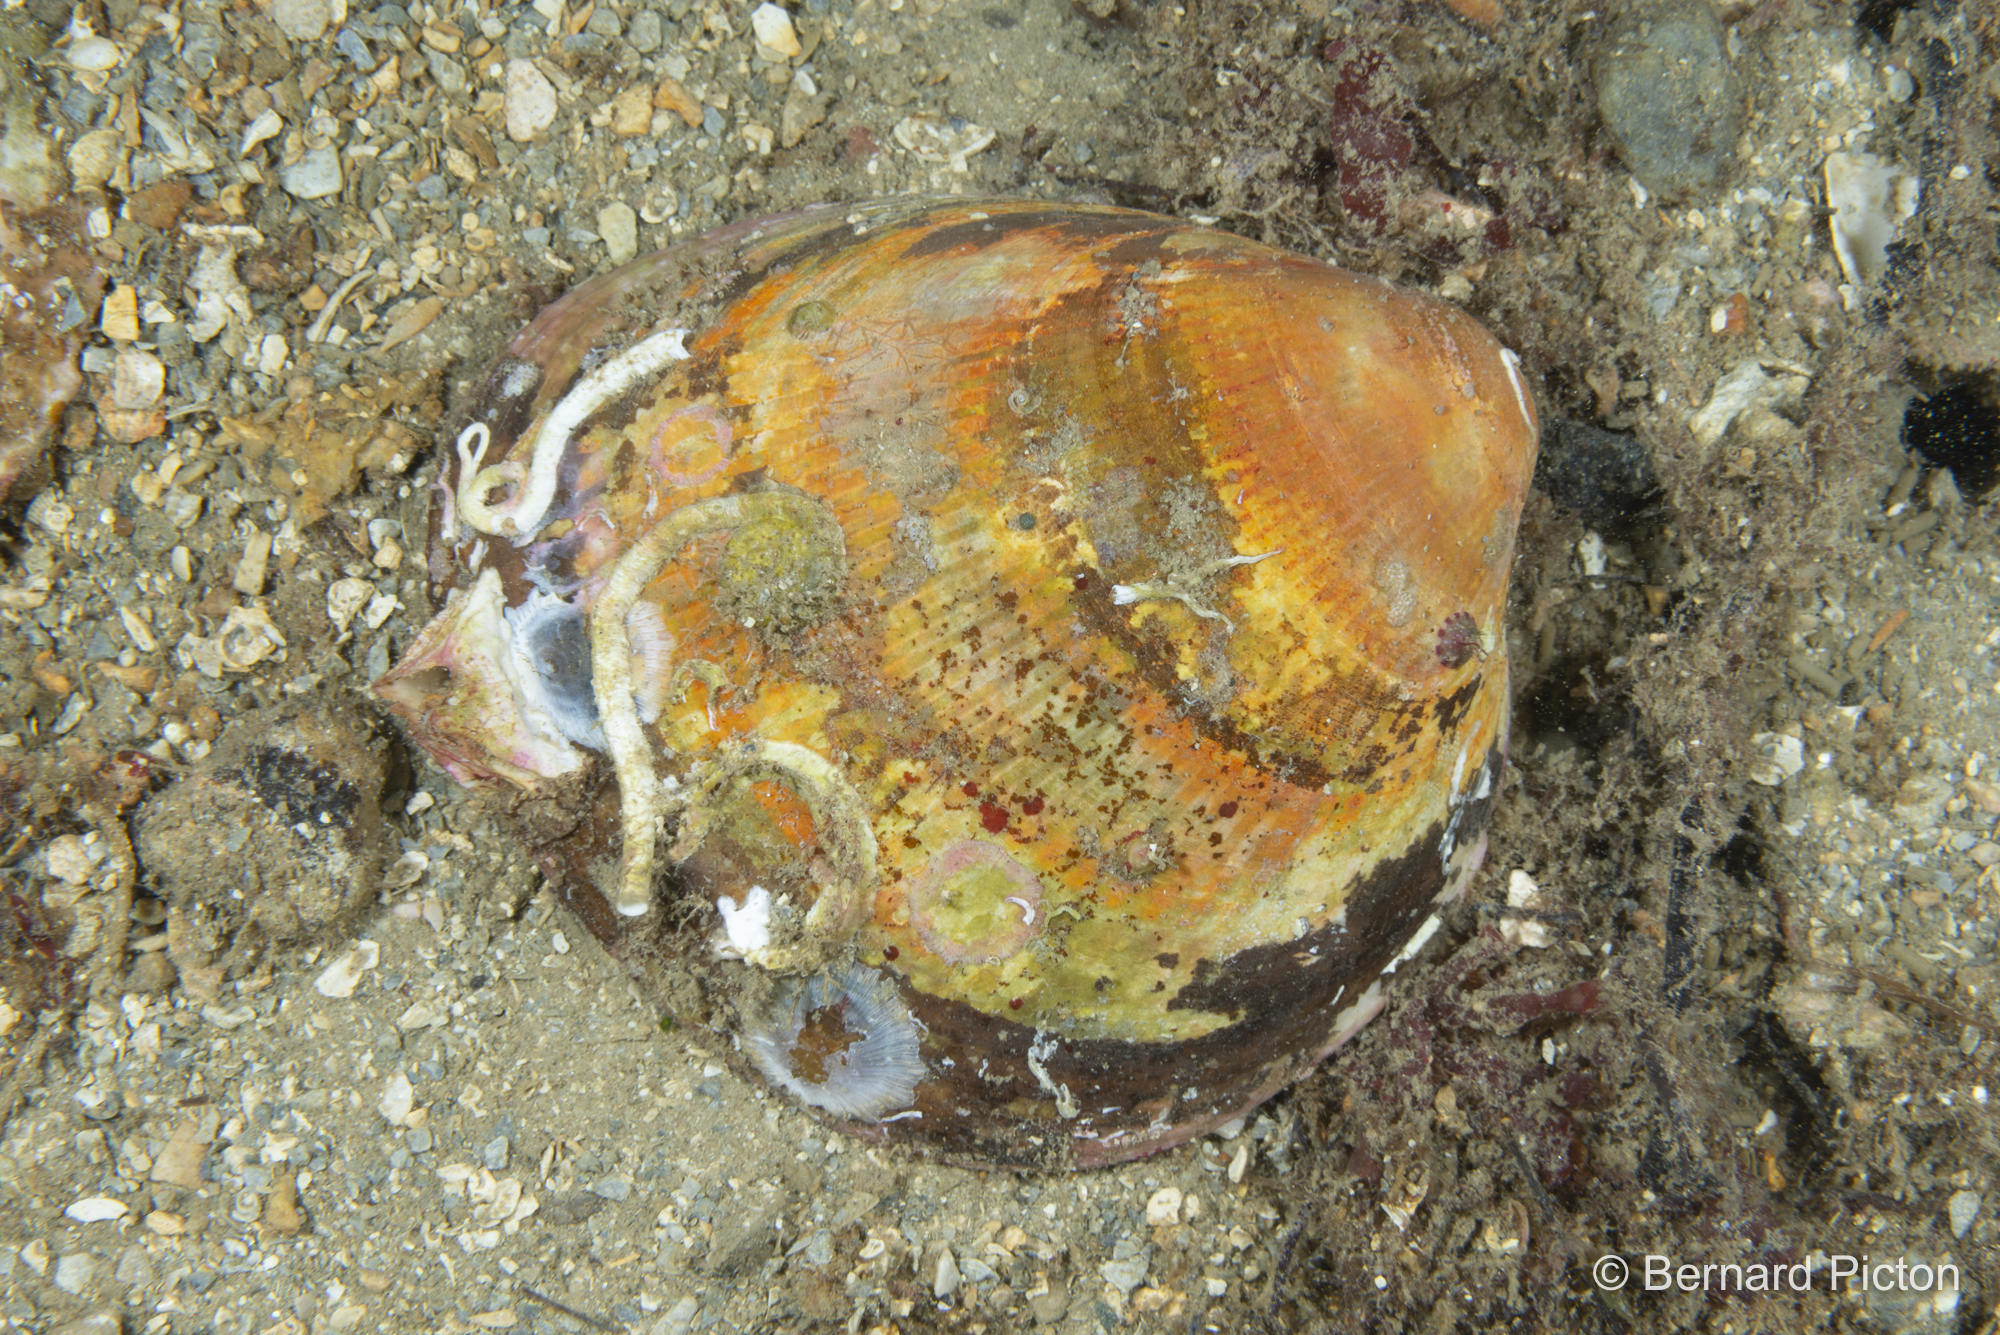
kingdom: Animalia
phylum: Mollusca
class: Bivalvia
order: Cardiida
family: Cardiidae
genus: Laevicardium
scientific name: Laevicardium crassum
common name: Norway cockle
